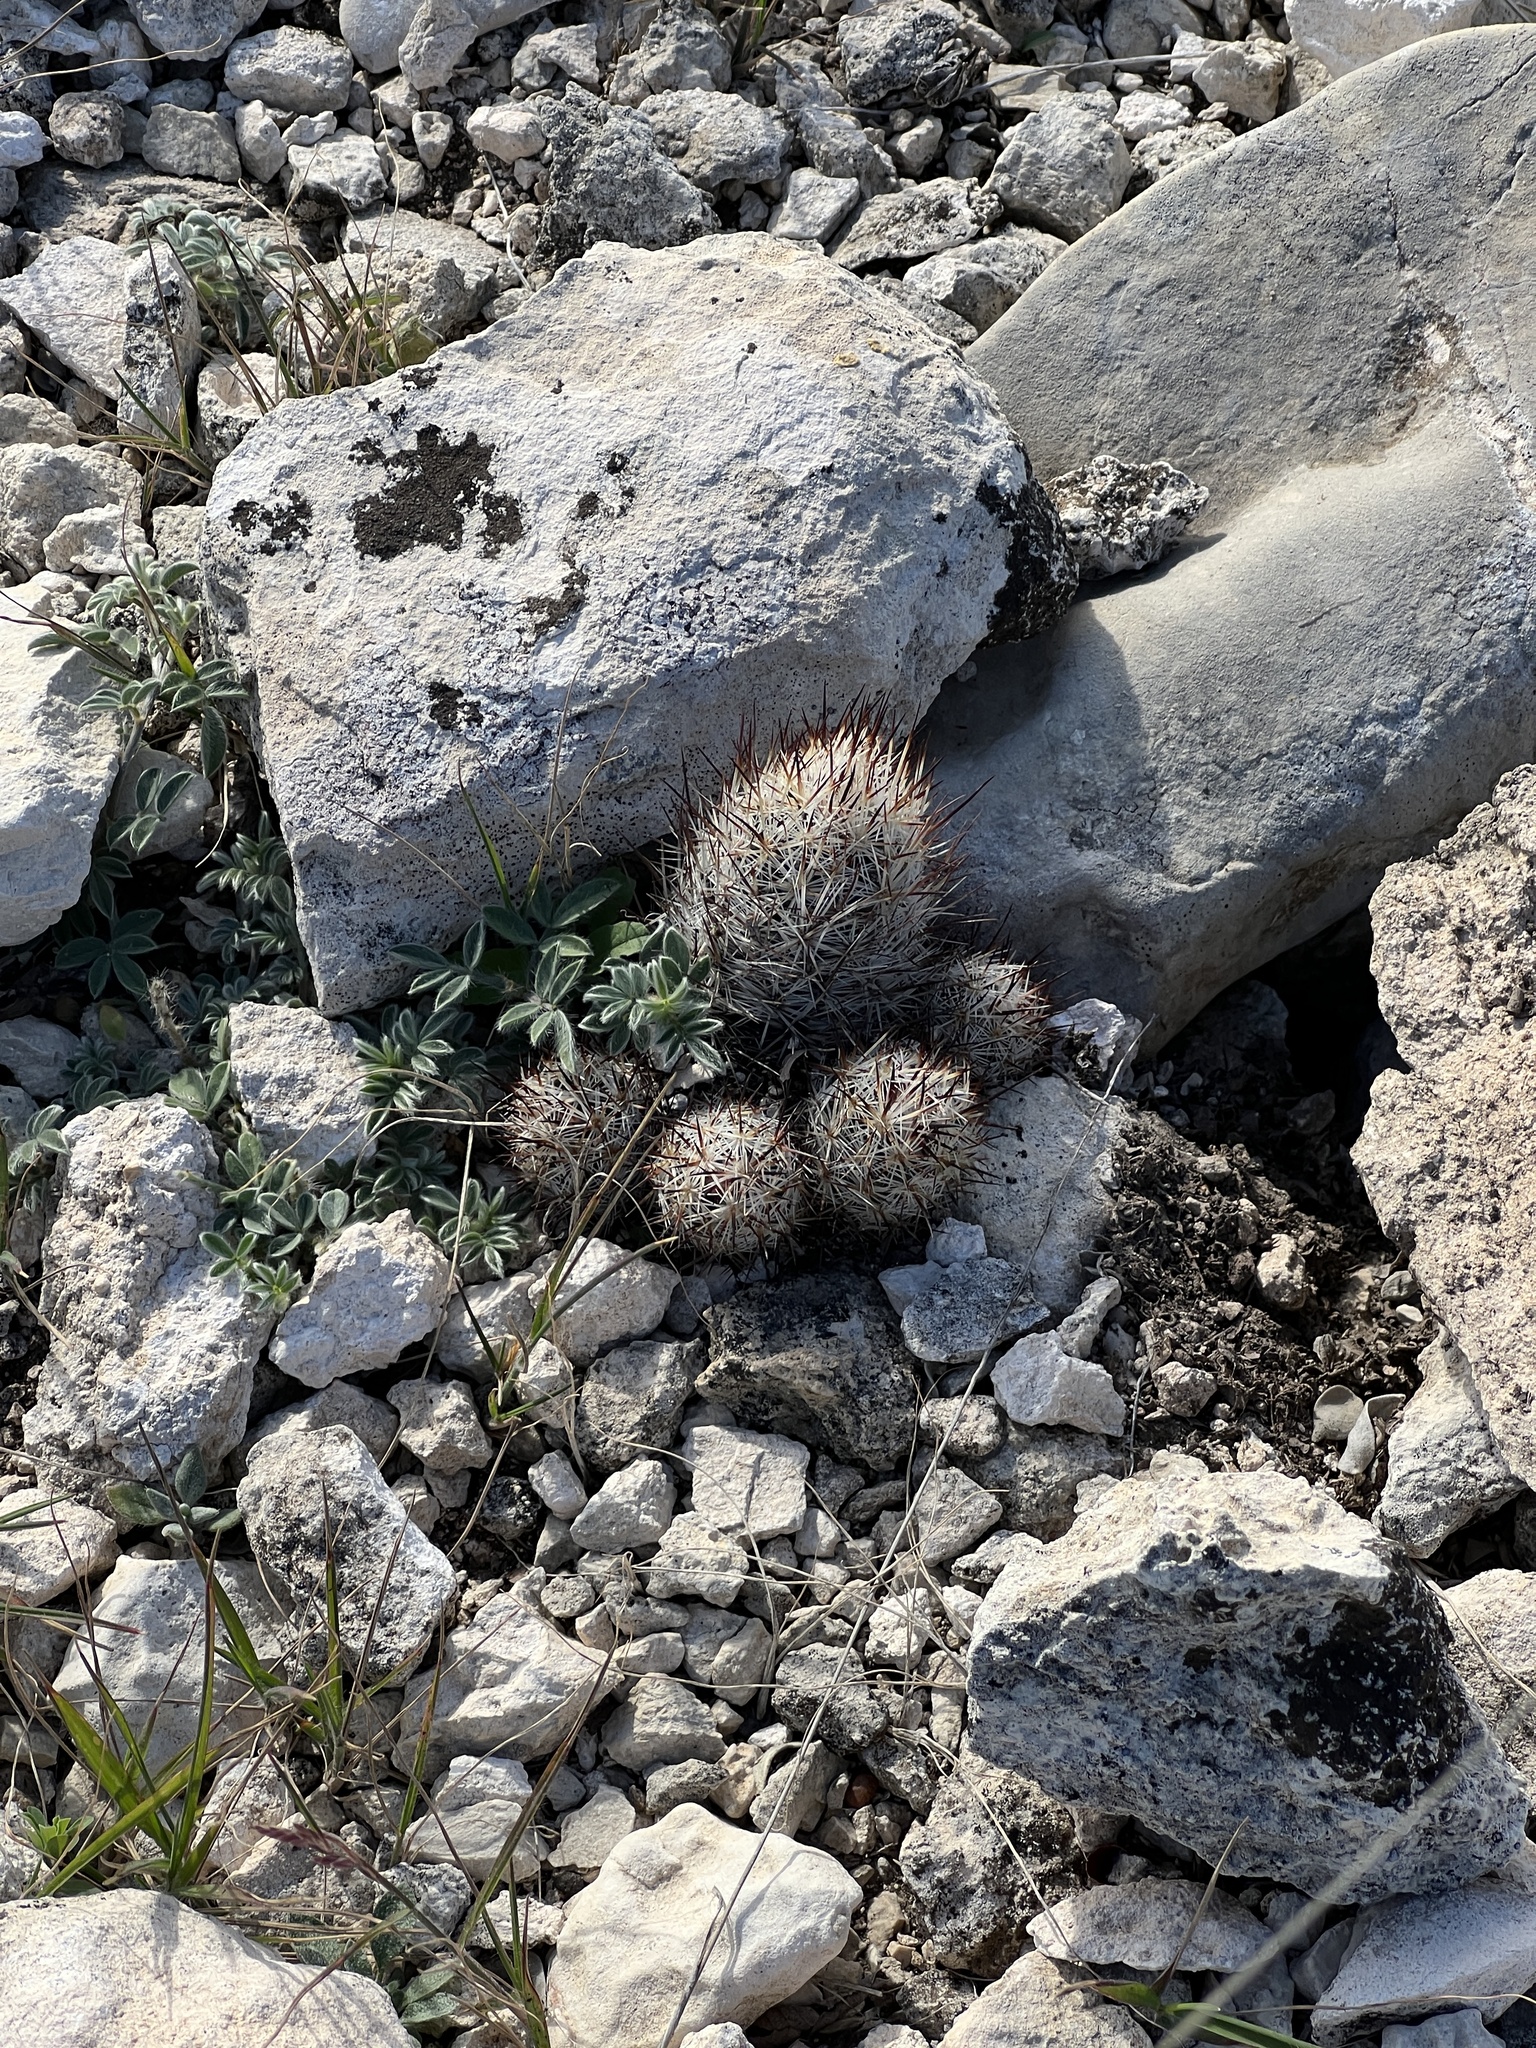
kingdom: Plantae
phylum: Tracheophyta
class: Magnoliopsida
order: Caryophyllales
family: Cactaceae
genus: Pelecyphora
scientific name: Pelecyphora emskoetteriana
